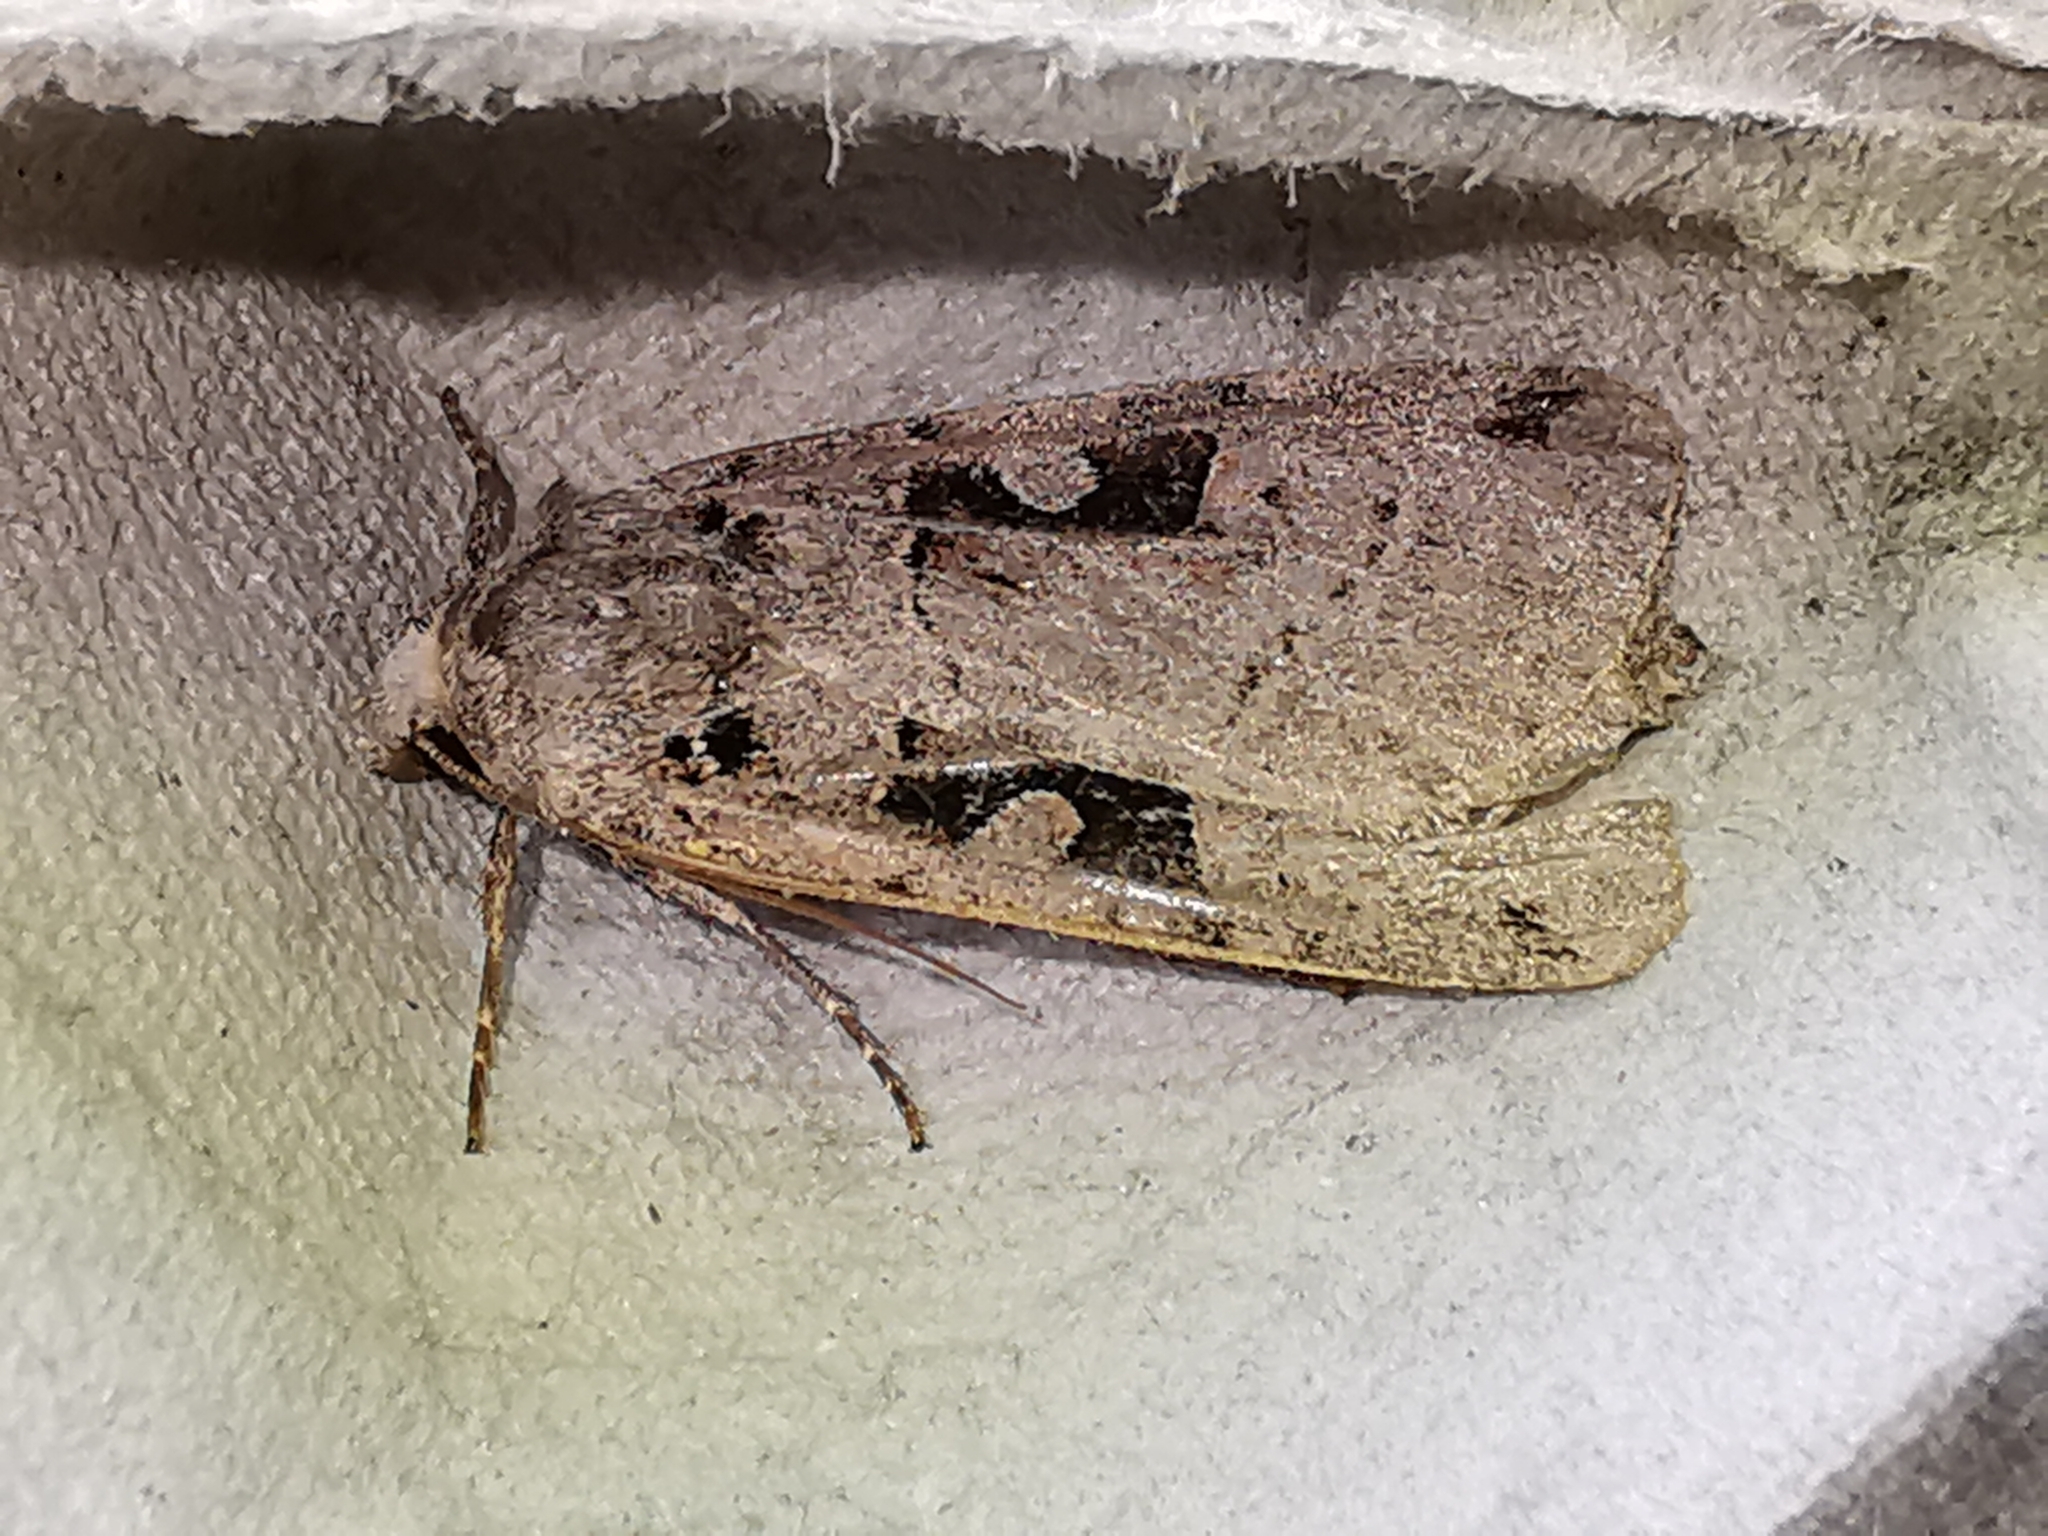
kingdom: Animalia
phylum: Arthropoda
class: Insecta
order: Lepidoptera
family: Noctuidae
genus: Xestia
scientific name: Xestia triangulum
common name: Double square-spot
